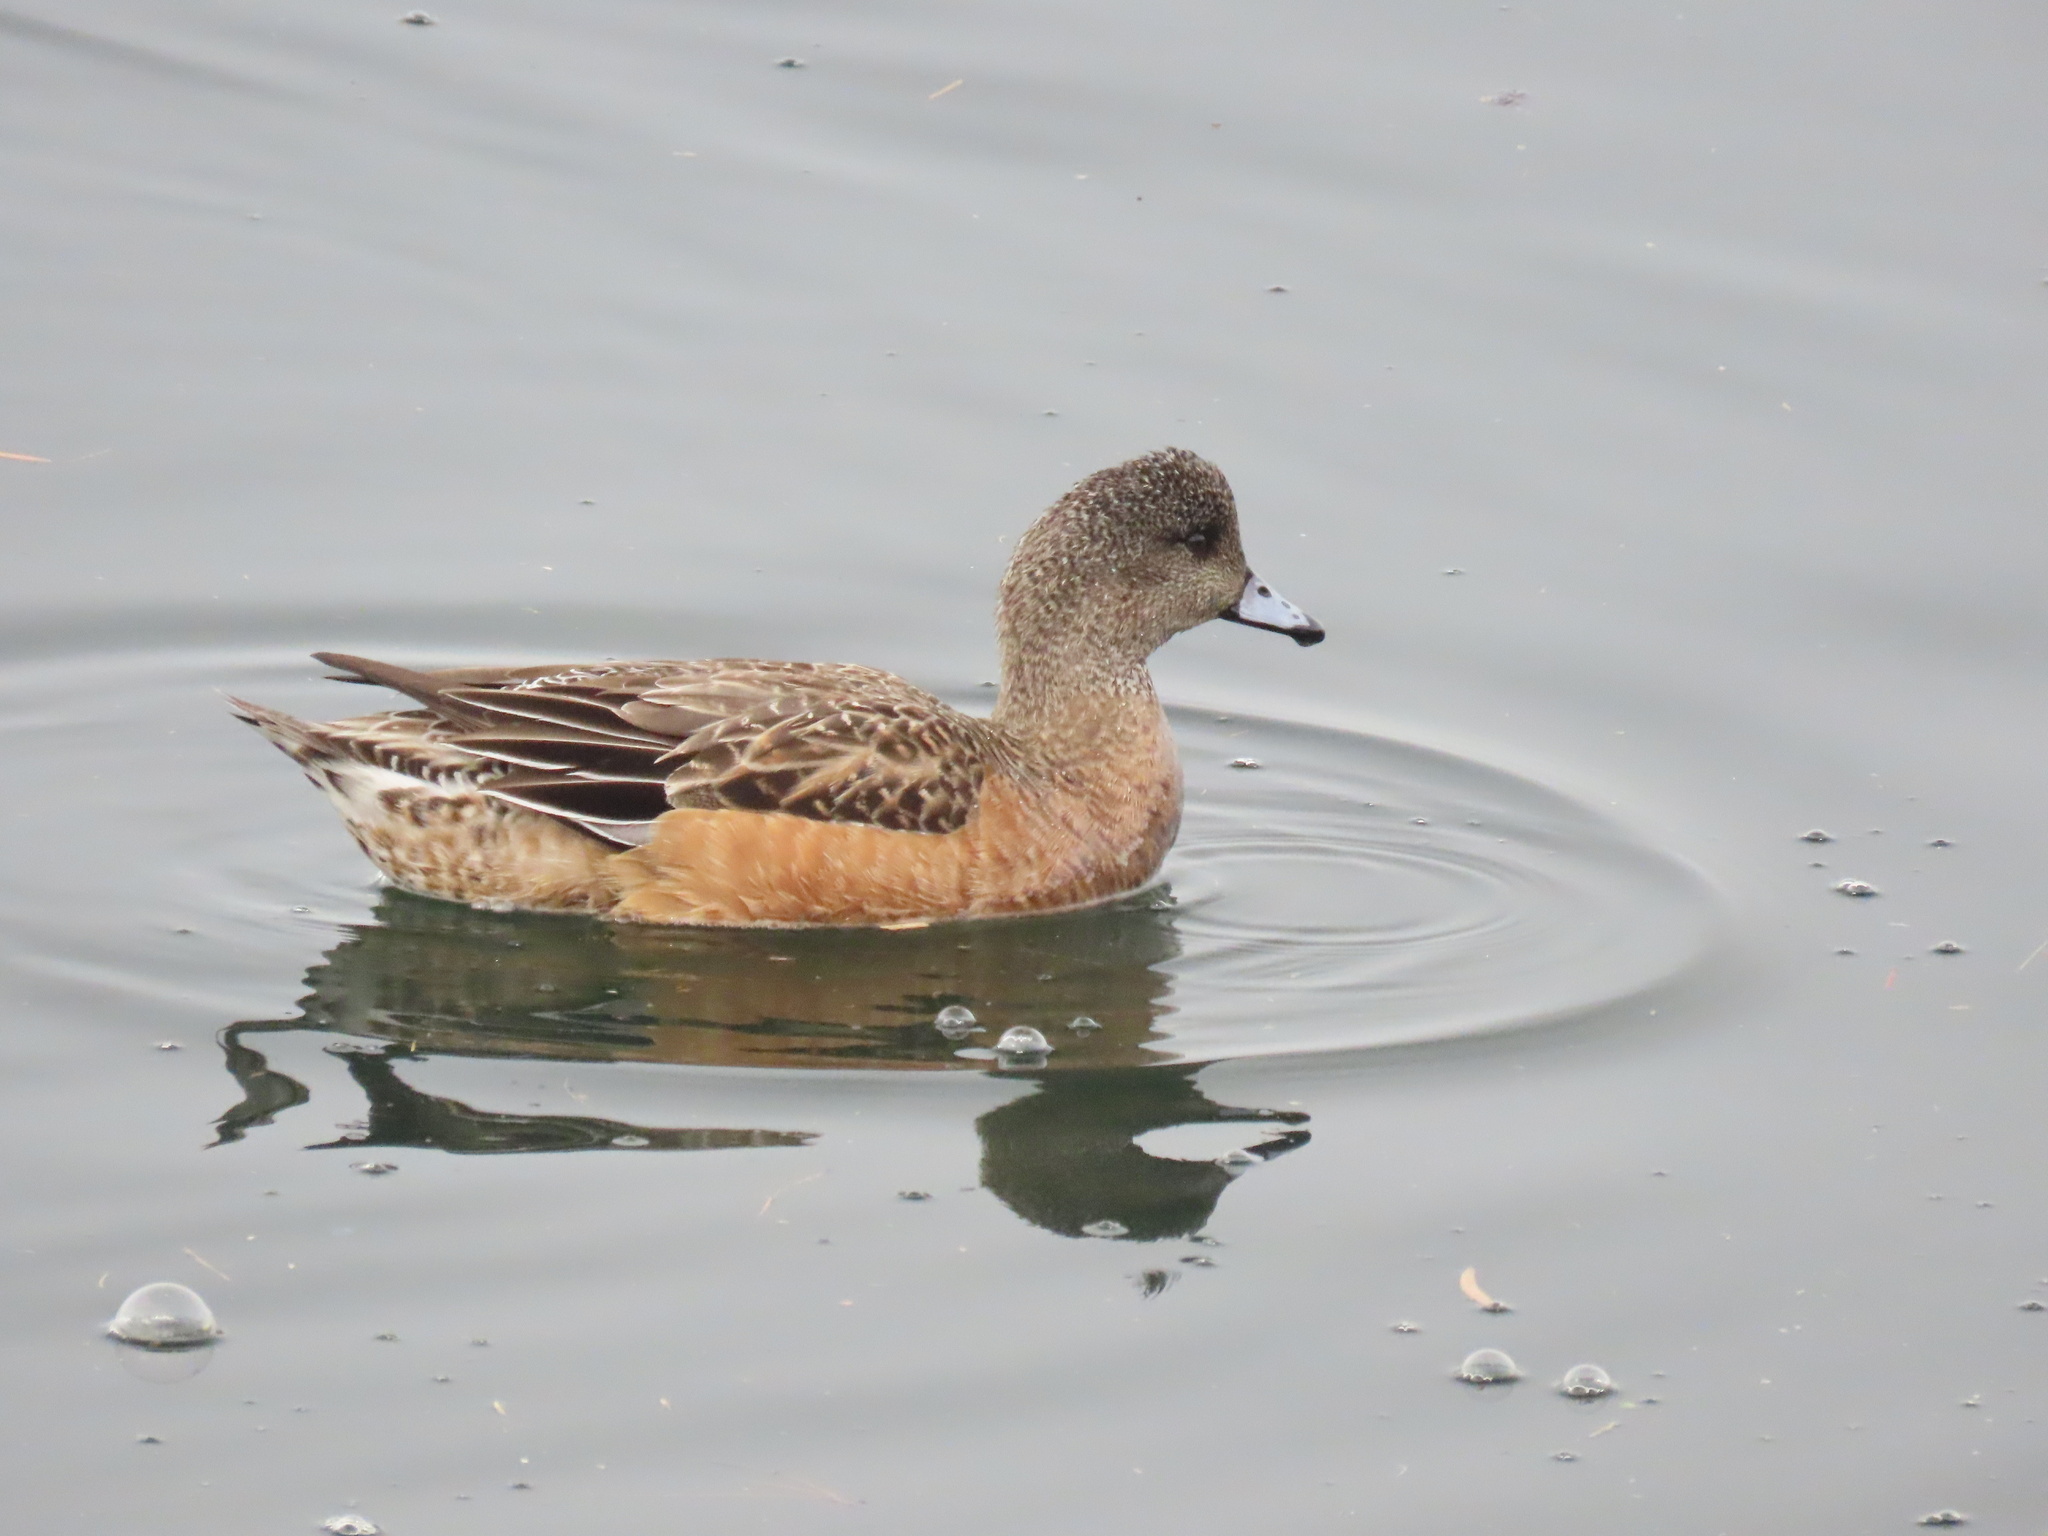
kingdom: Animalia
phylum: Chordata
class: Aves
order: Anseriformes
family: Anatidae
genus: Mareca
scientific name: Mareca americana
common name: American wigeon
